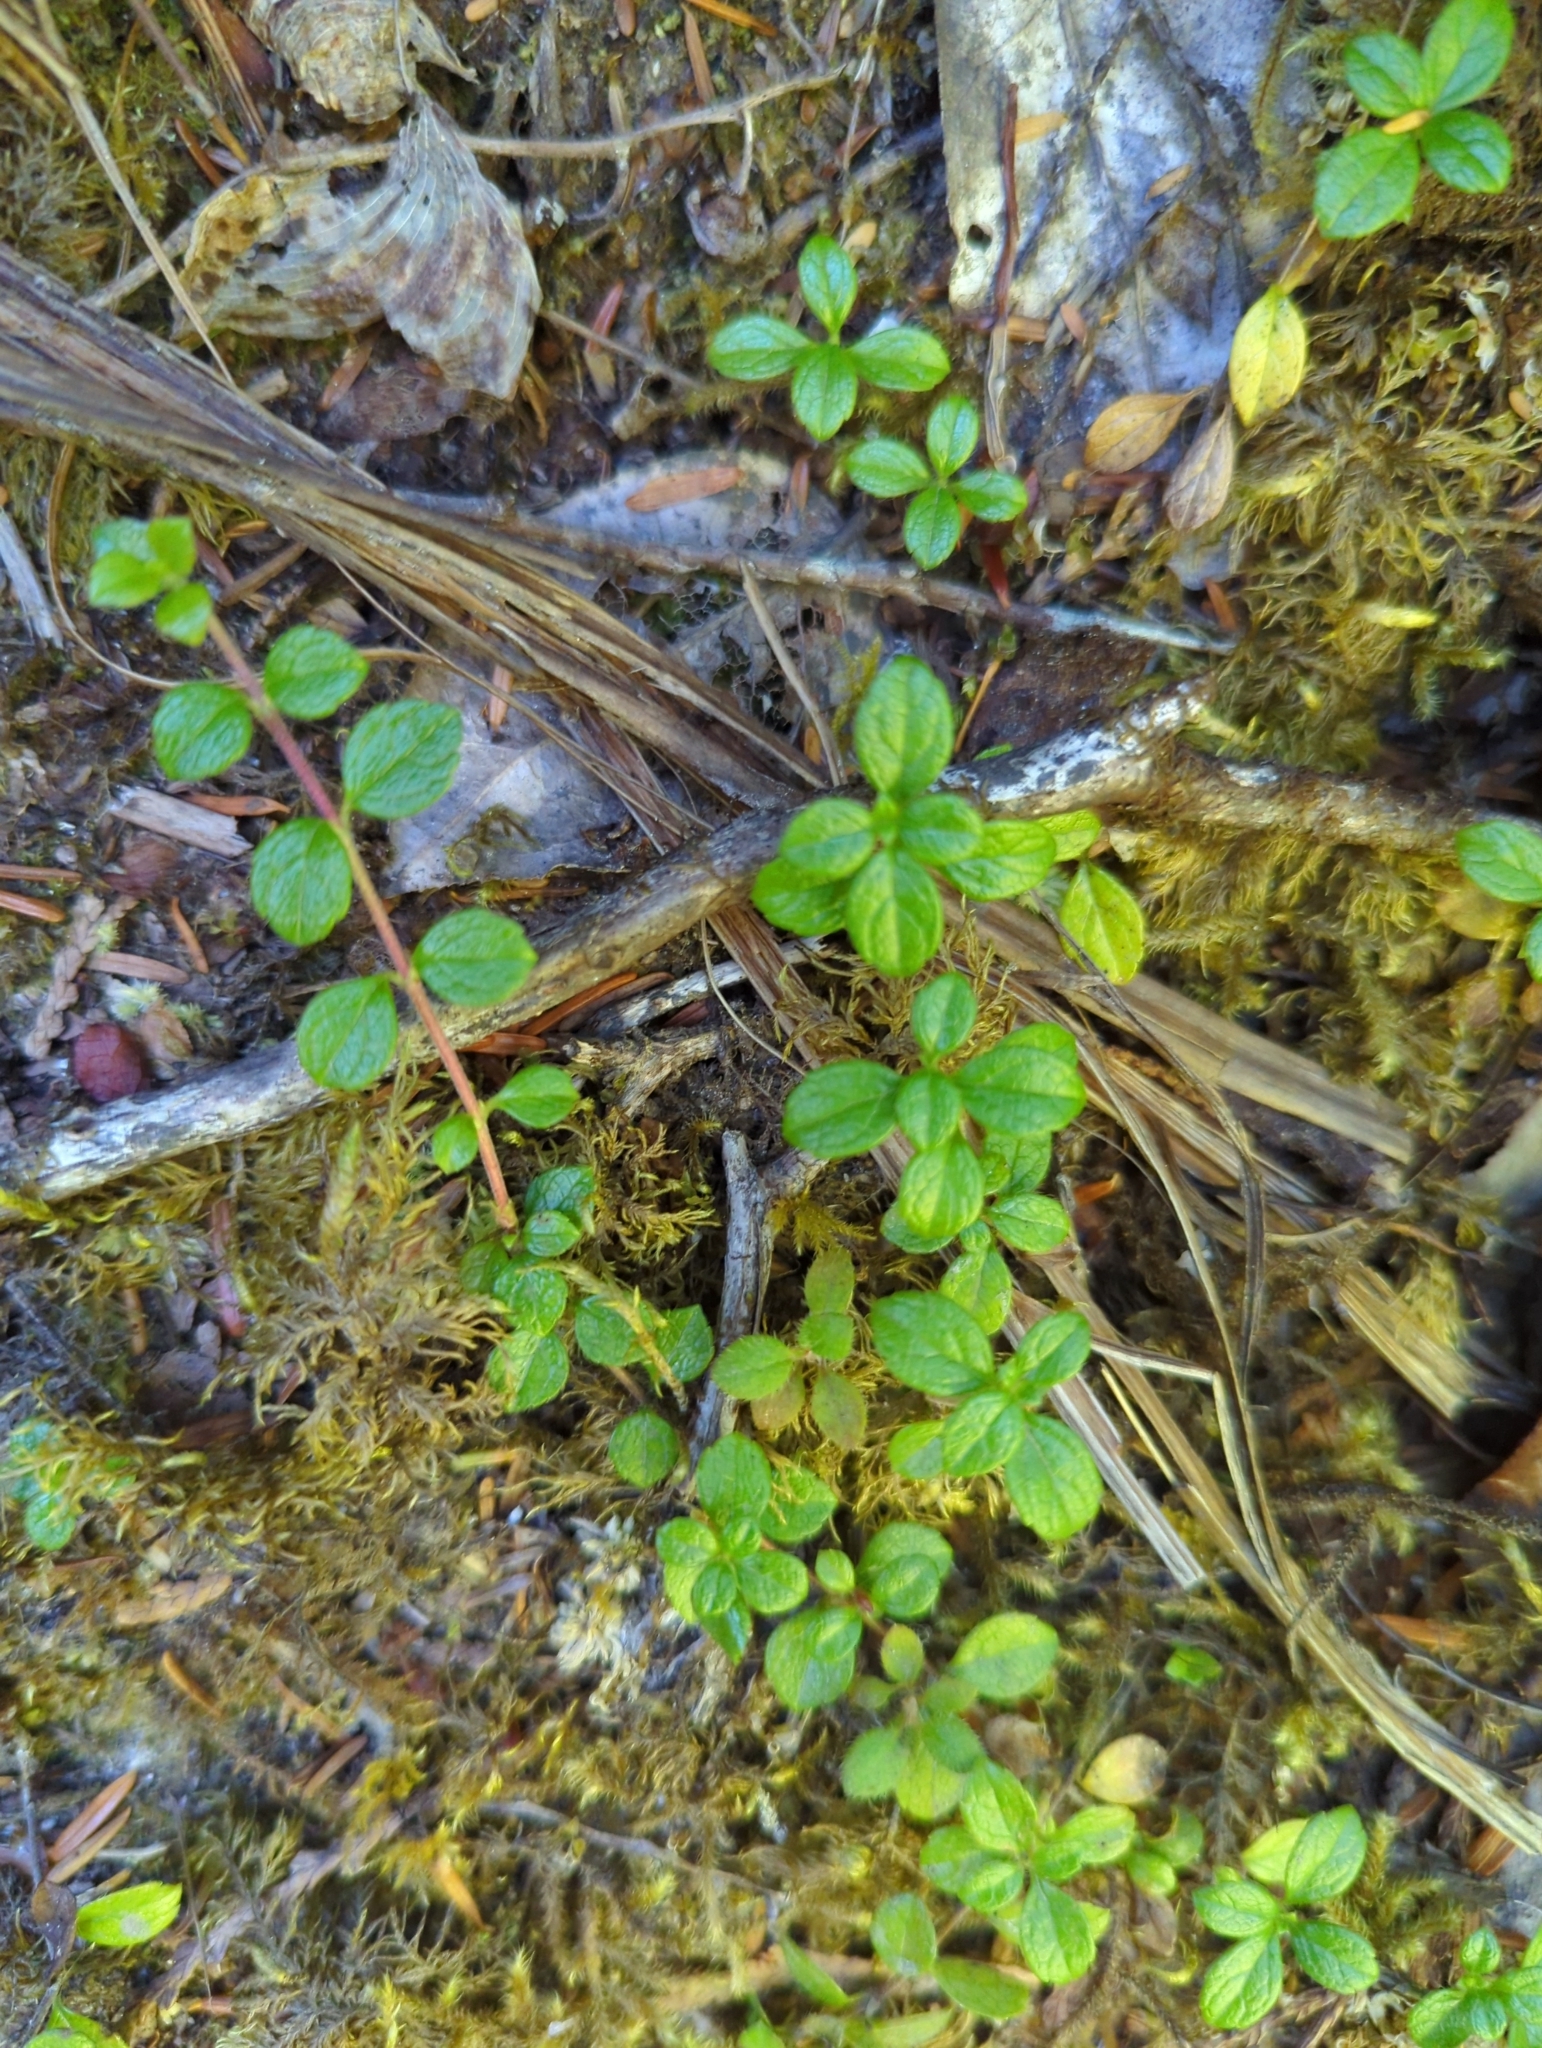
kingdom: Plantae
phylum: Tracheophyta
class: Magnoliopsida
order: Dipsacales
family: Caprifoliaceae
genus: Linnaea
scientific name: Linnaea borealis
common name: Twinflower
